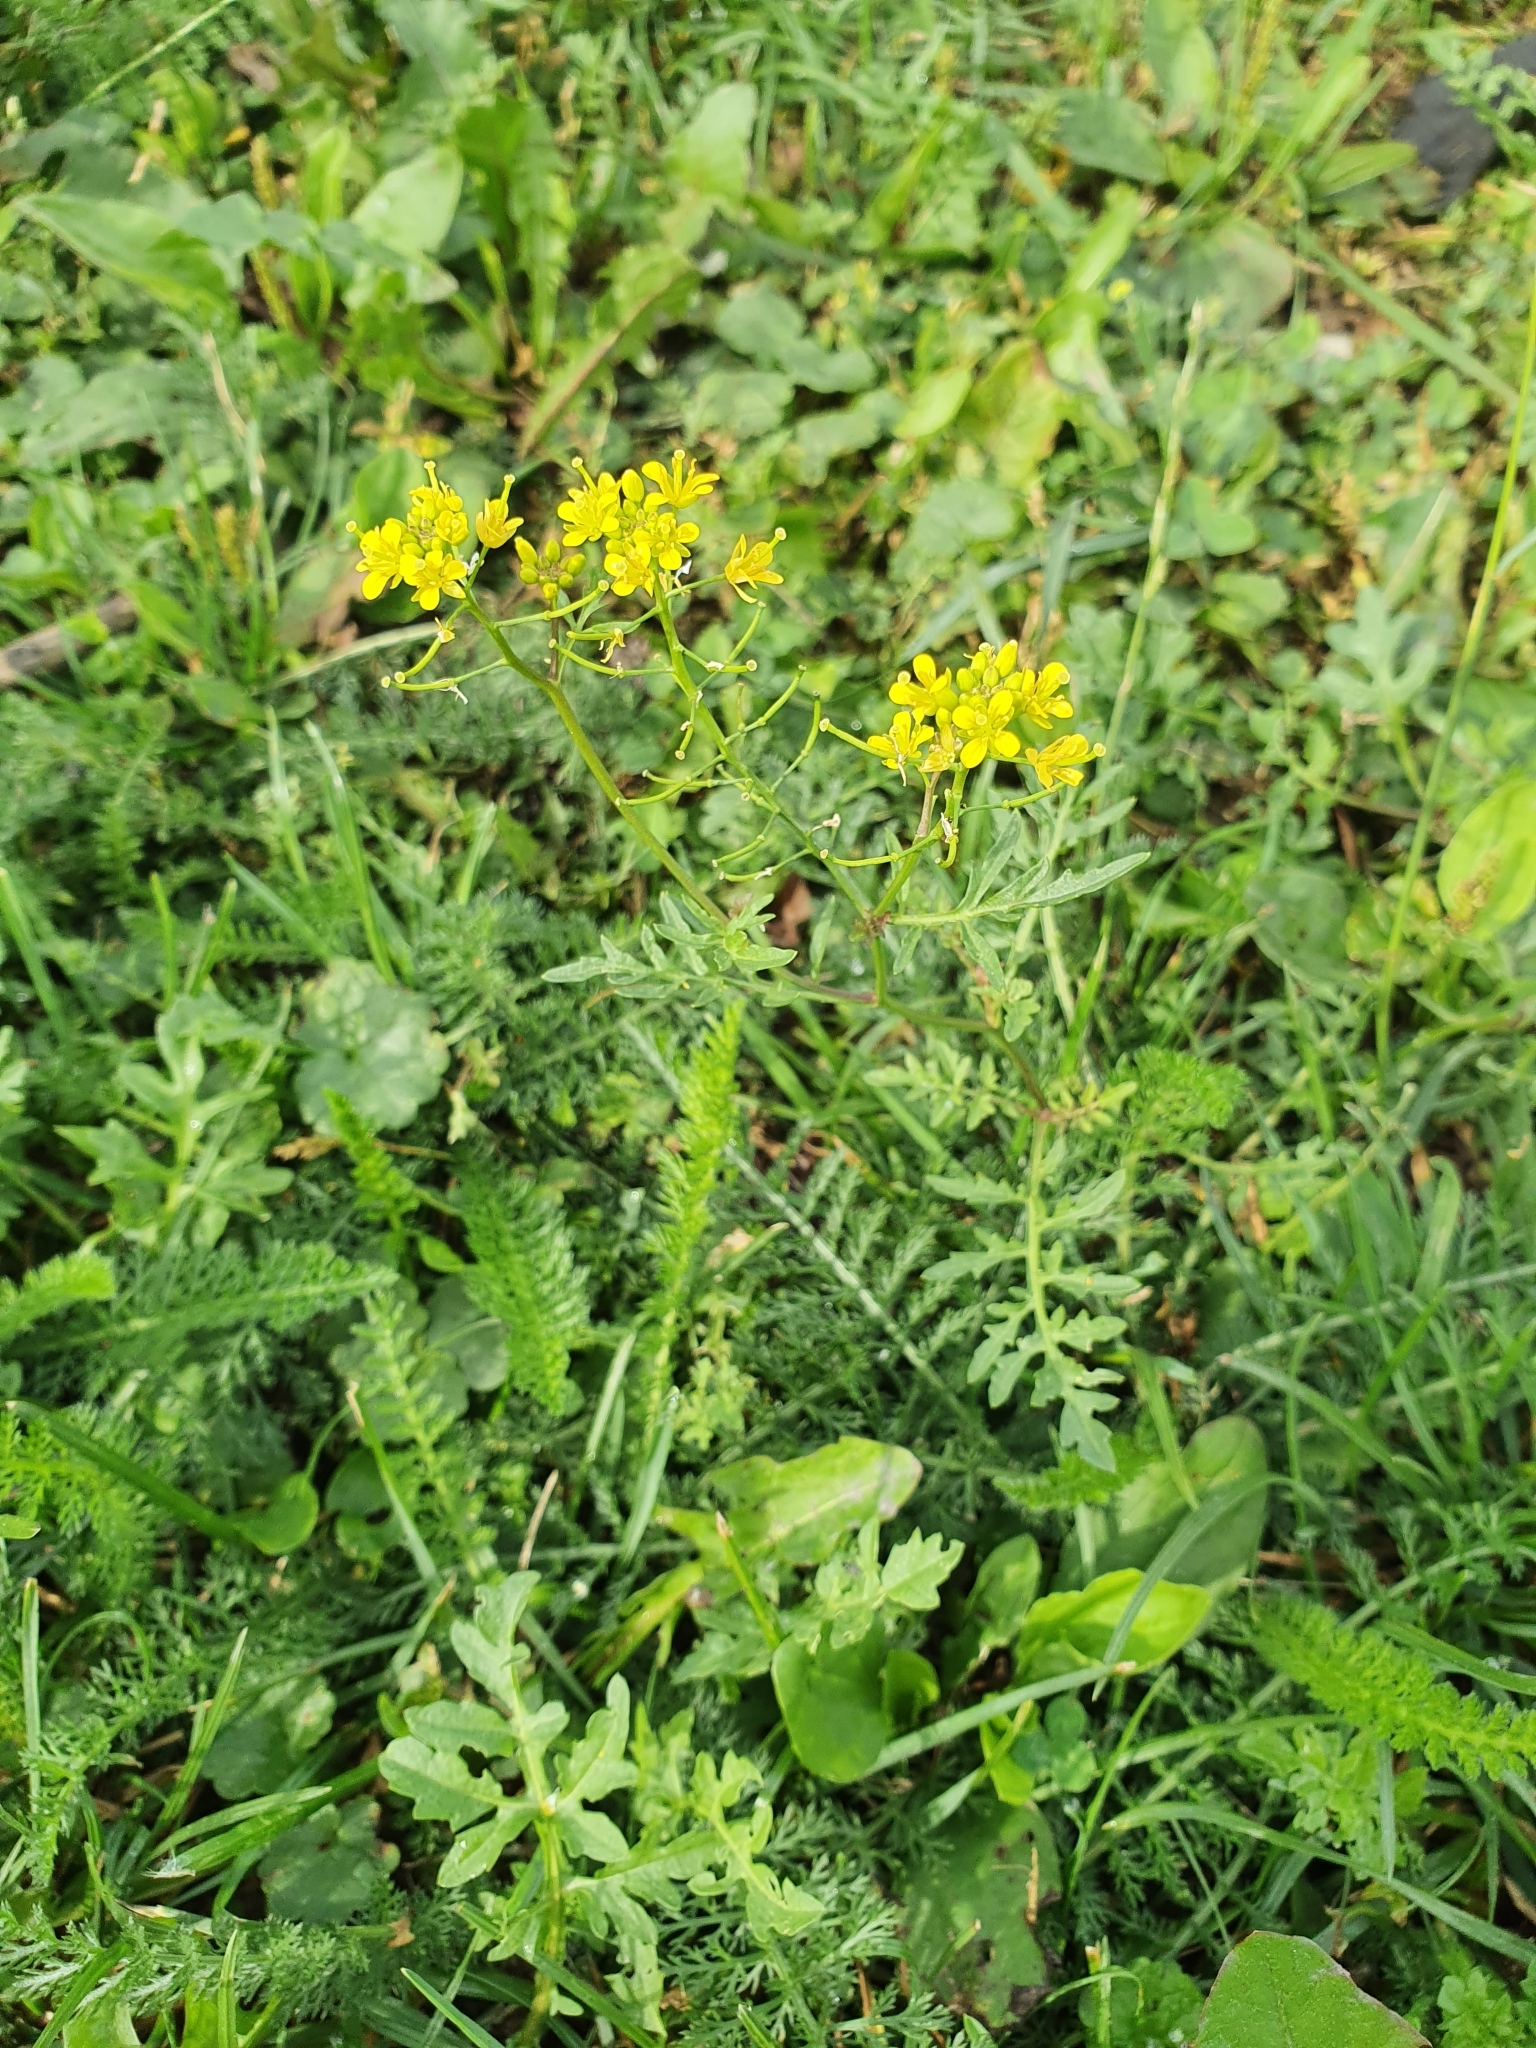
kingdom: Plantae
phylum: Tracheophyta
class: Magnoliopsida
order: Brassicales
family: Brassicaceae
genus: Rorippa
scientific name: Rorippa sylvestris
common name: Creeping yellowcress
